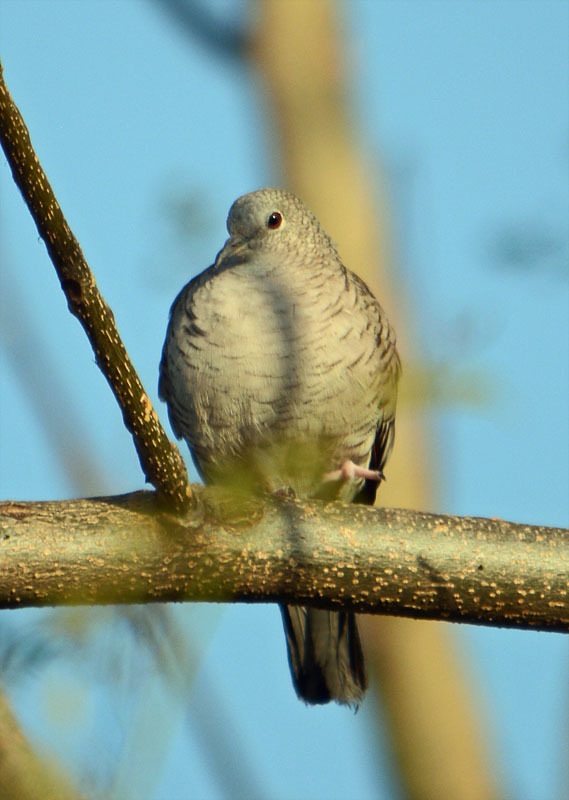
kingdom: Animalia
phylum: Chordata
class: Aves
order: Columbiformes
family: Columbidae
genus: Columbina
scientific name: Columbina inca
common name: Inca dove
